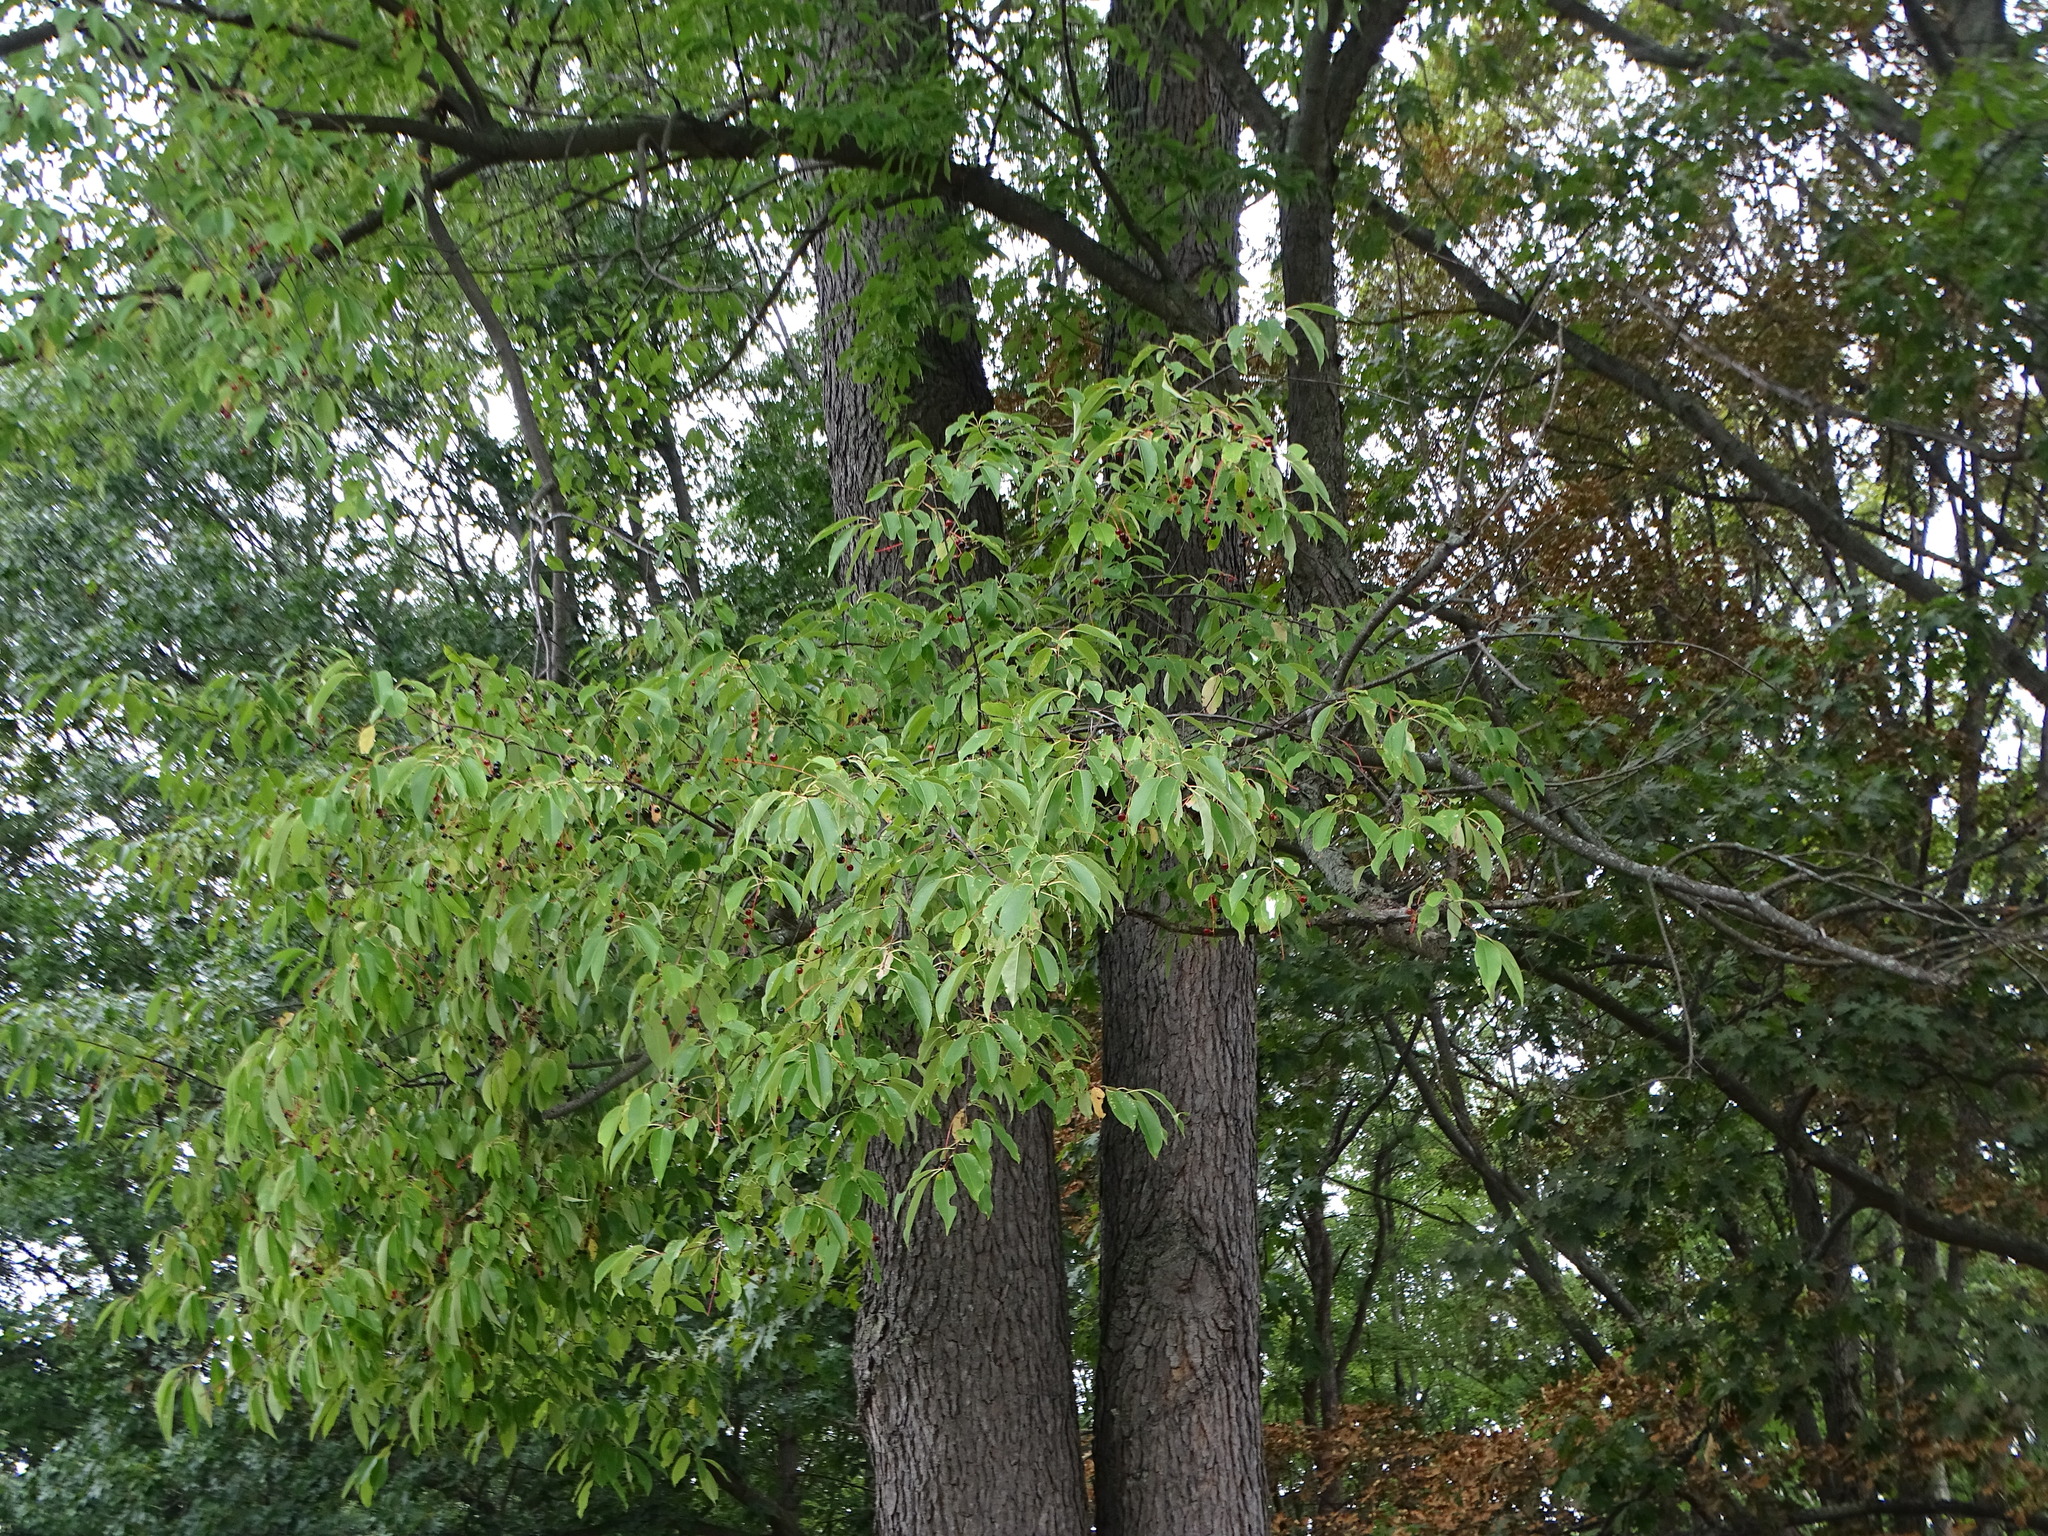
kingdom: Plantae
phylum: Tracheophyta
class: Magnoliopsida
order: Rosales
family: Rosaceae
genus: Prunus
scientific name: Prunus serotina
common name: Black cherry
